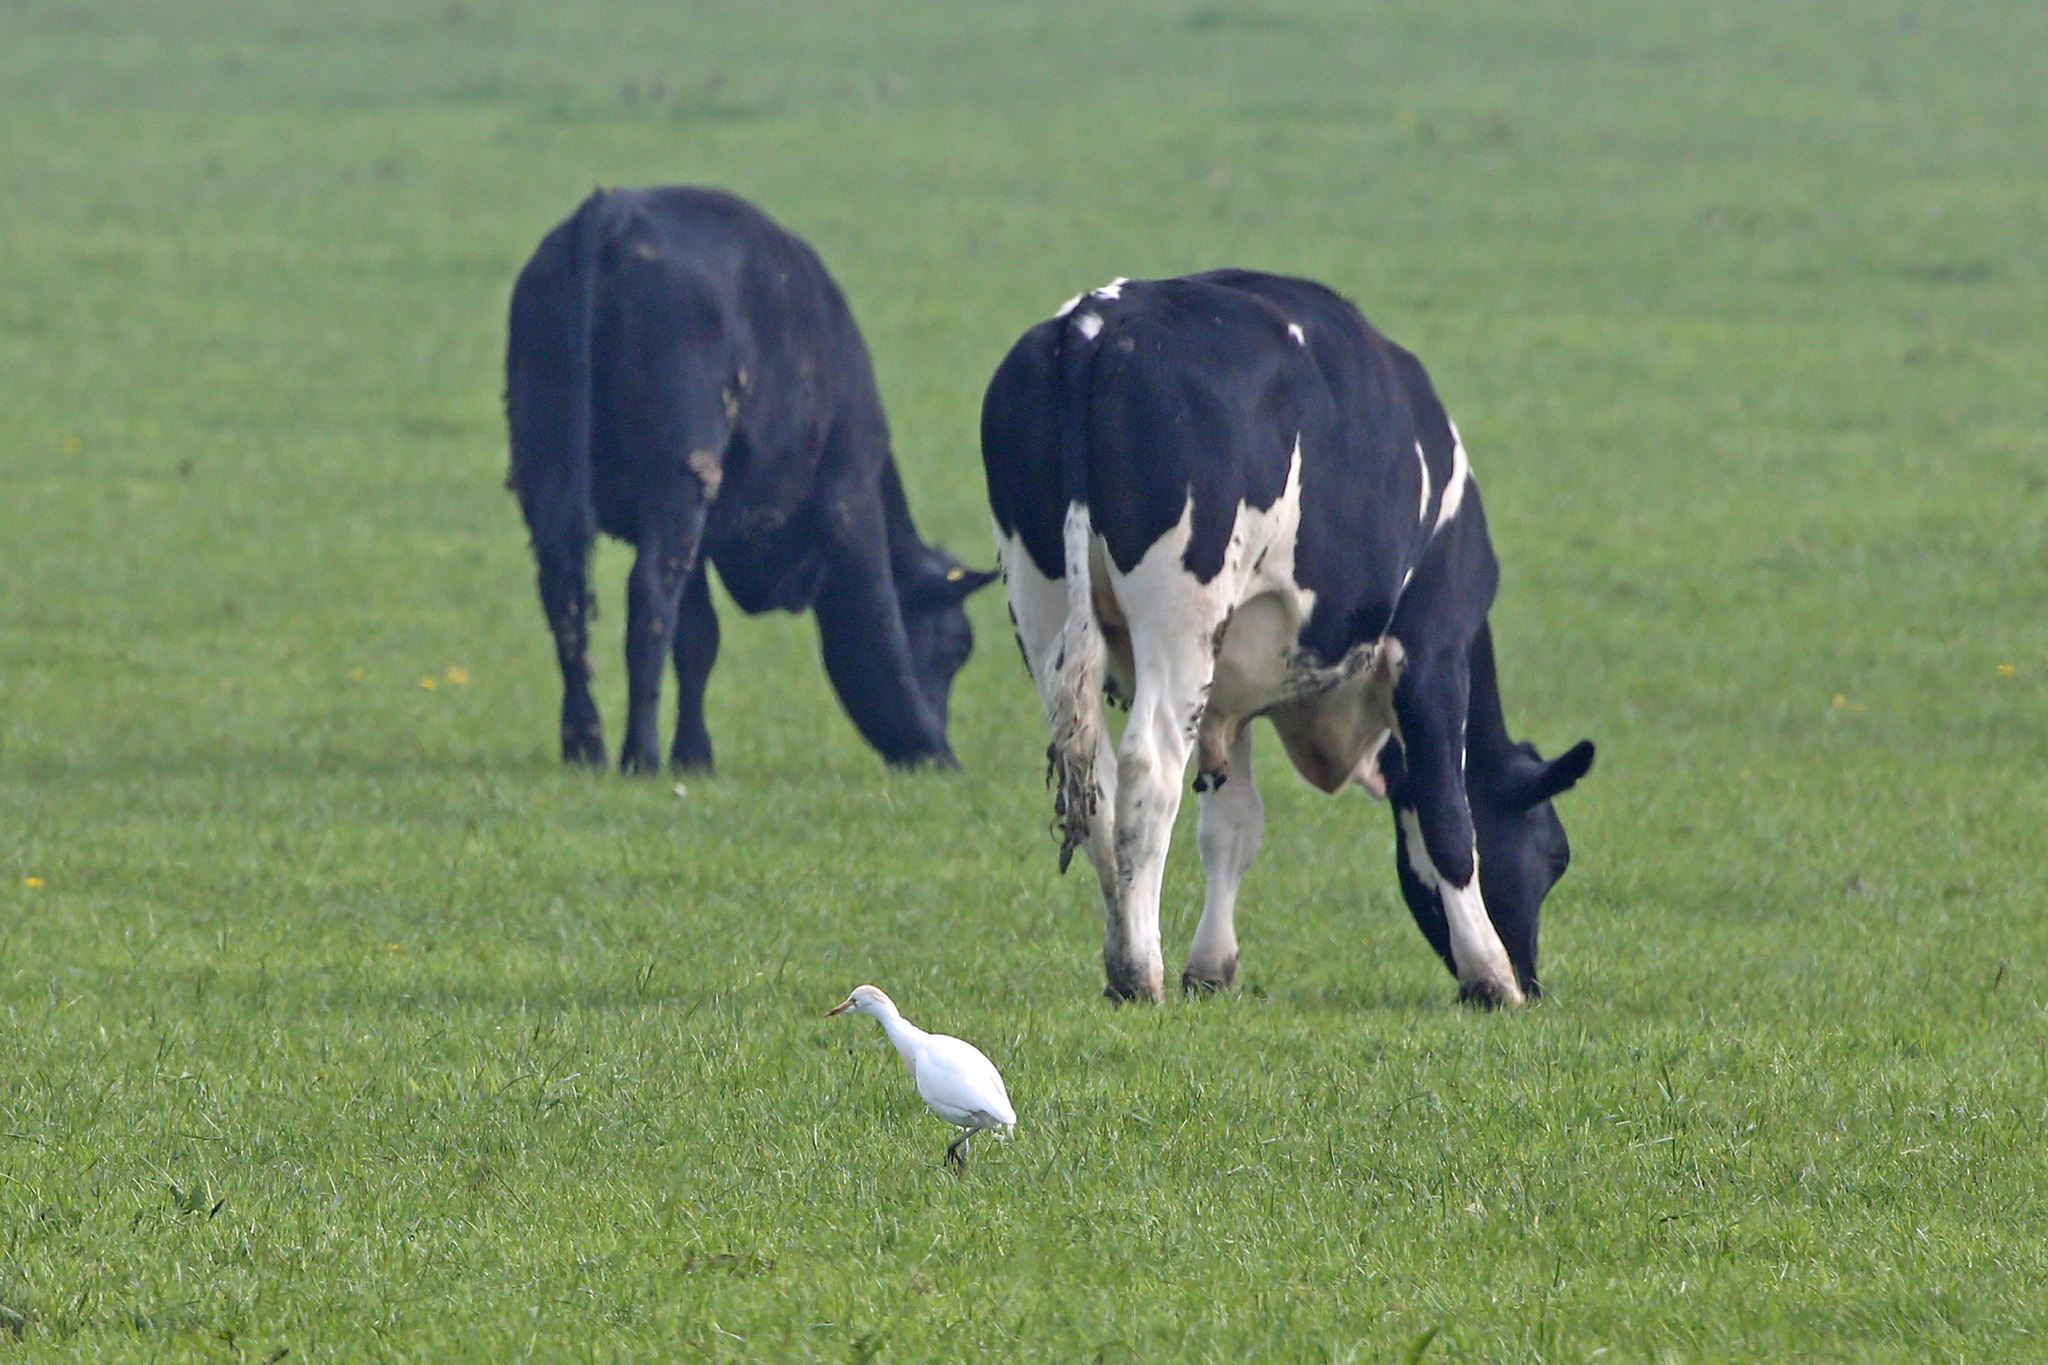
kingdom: Animalia
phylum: Chordata
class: Aves
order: Pelecaniformes
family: Ardeidae
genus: Bubulcus
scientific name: Bubulcus ibis
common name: Cattle egret
